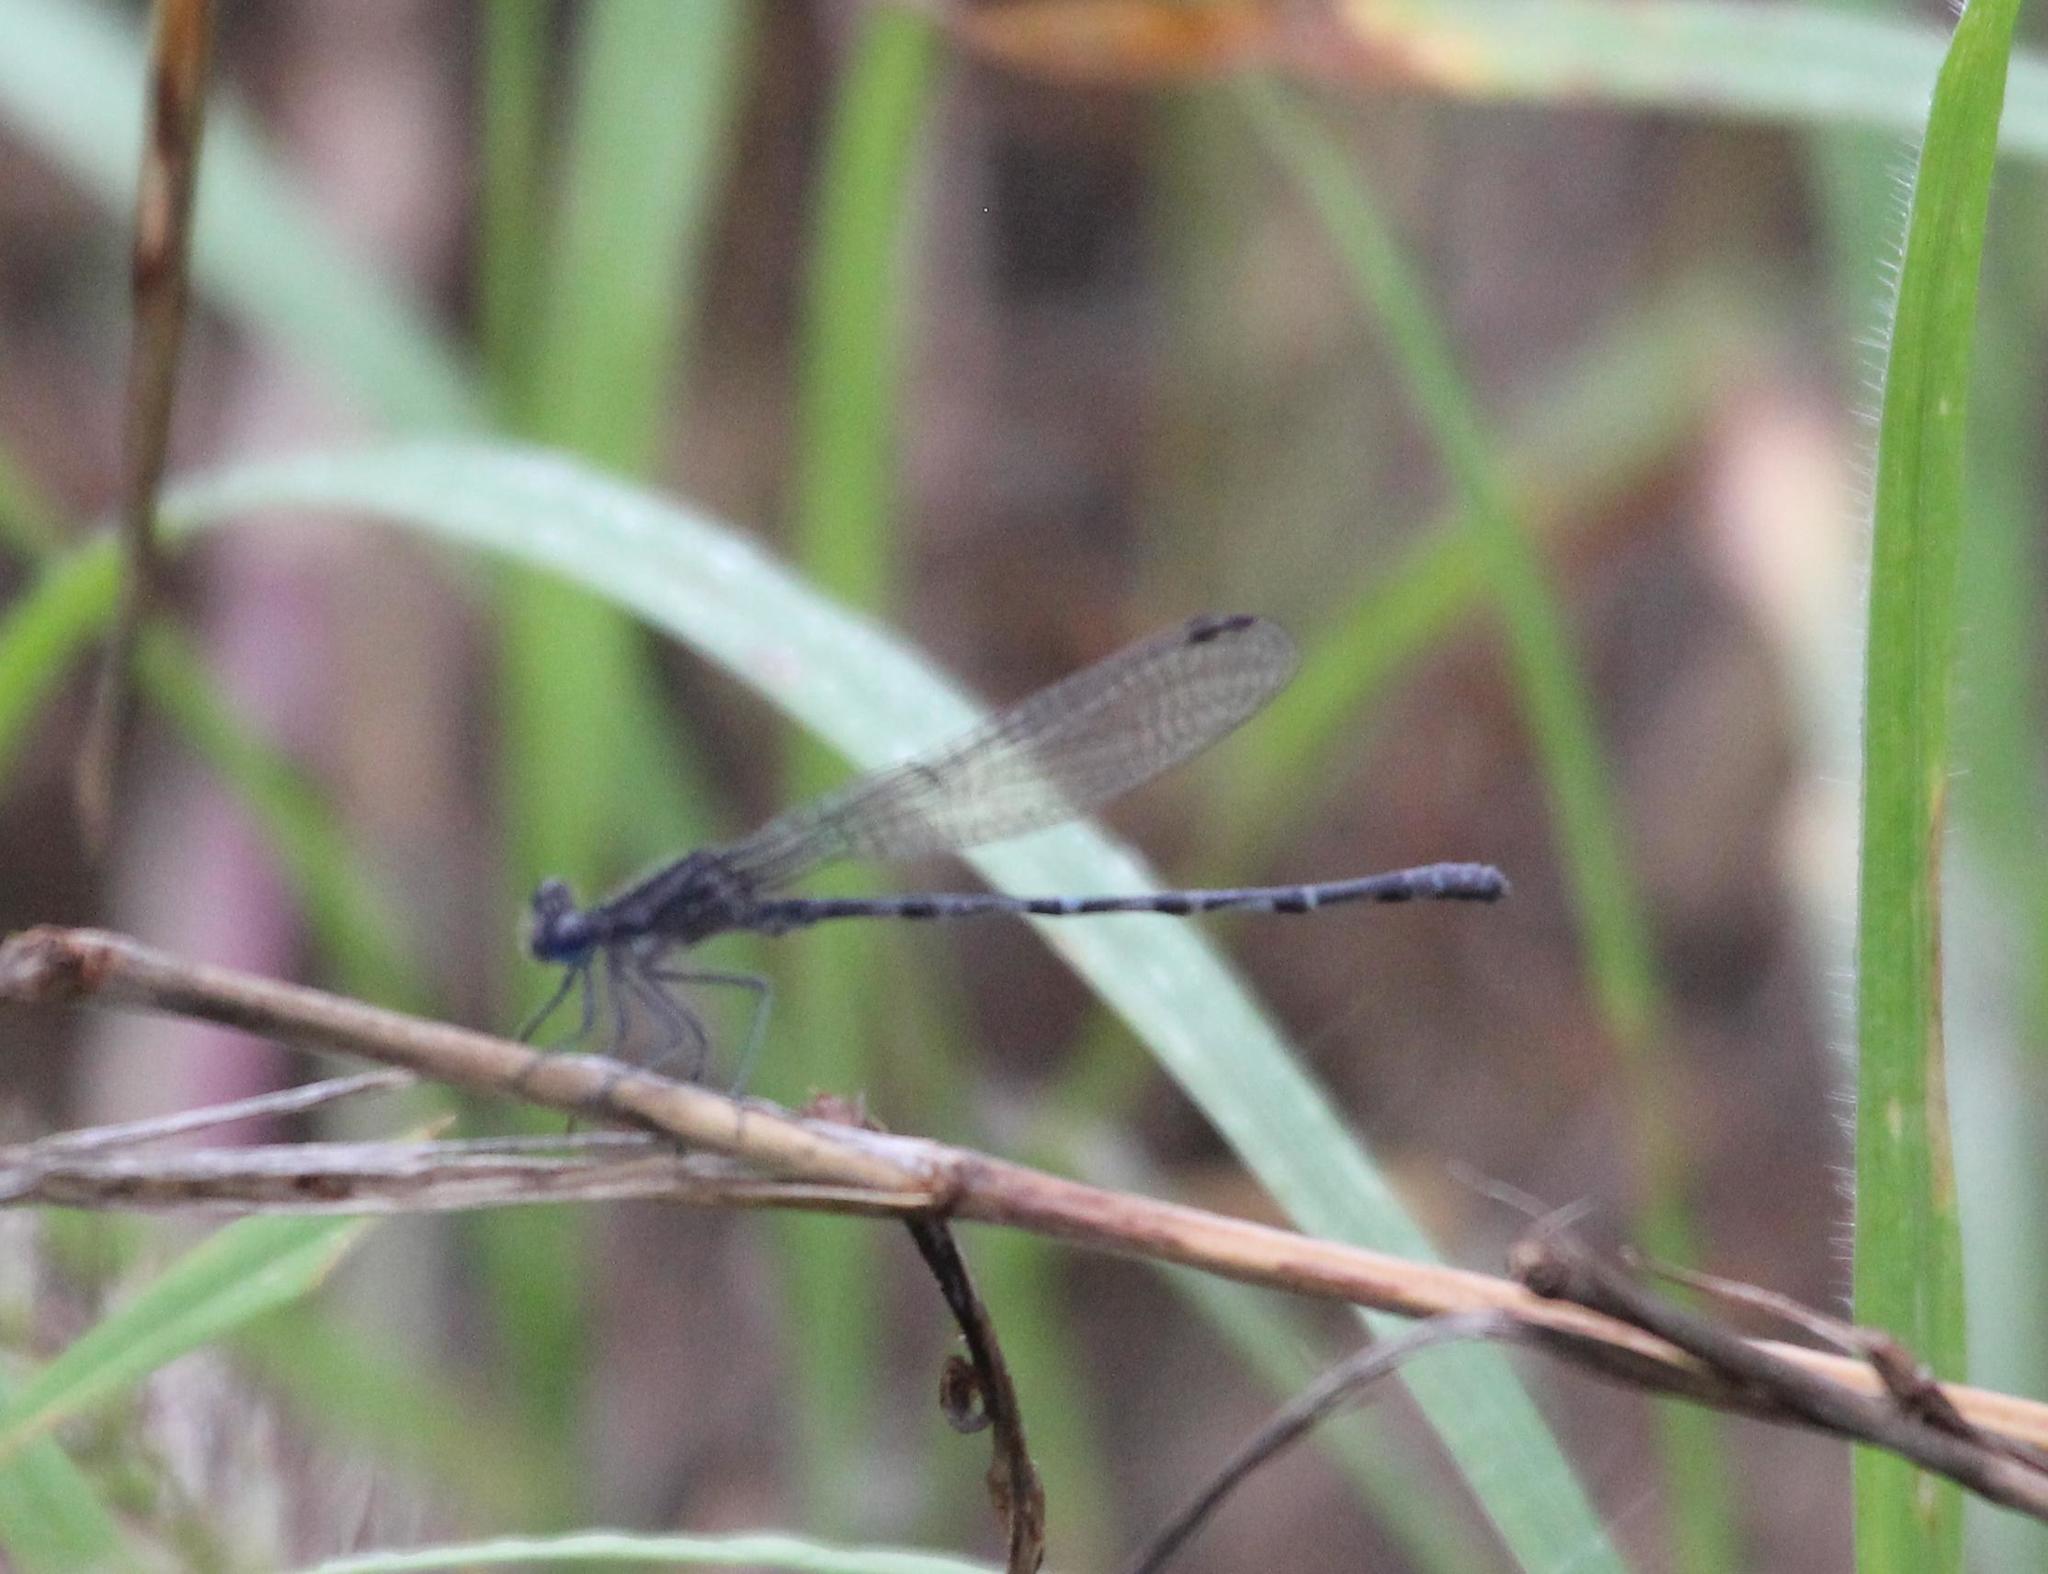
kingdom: Animalia
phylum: Arthropoda
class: Insecta
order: Odonata
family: Coenagrionidae
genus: Argia
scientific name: Argia immunda
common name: Kiowa dancer
